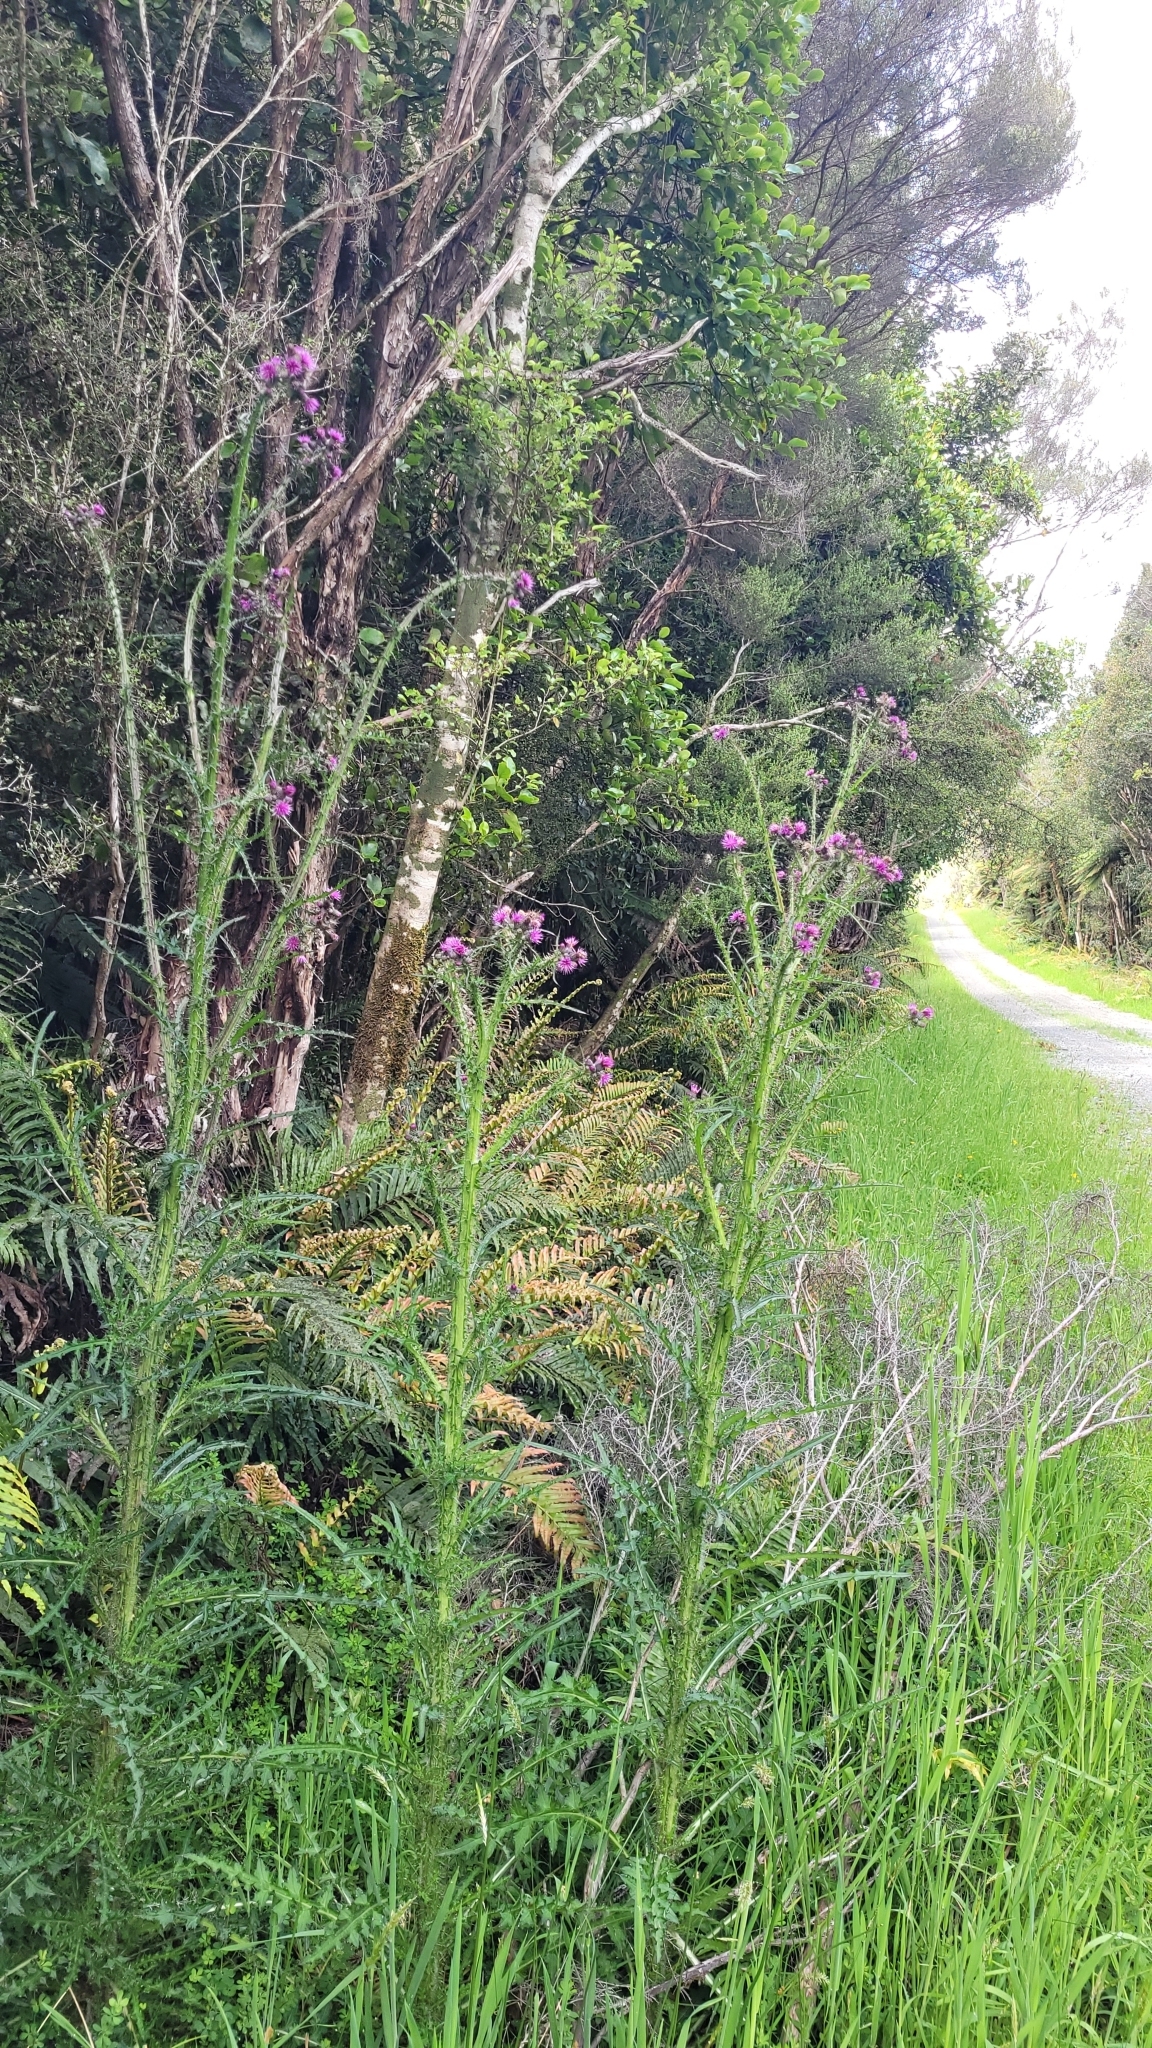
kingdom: Plantae
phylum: Tracheophyta
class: Magnoliopsida
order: Asterales
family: Asteraceae
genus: Cirsium
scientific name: Cirsium palustre
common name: Marsh thistle
